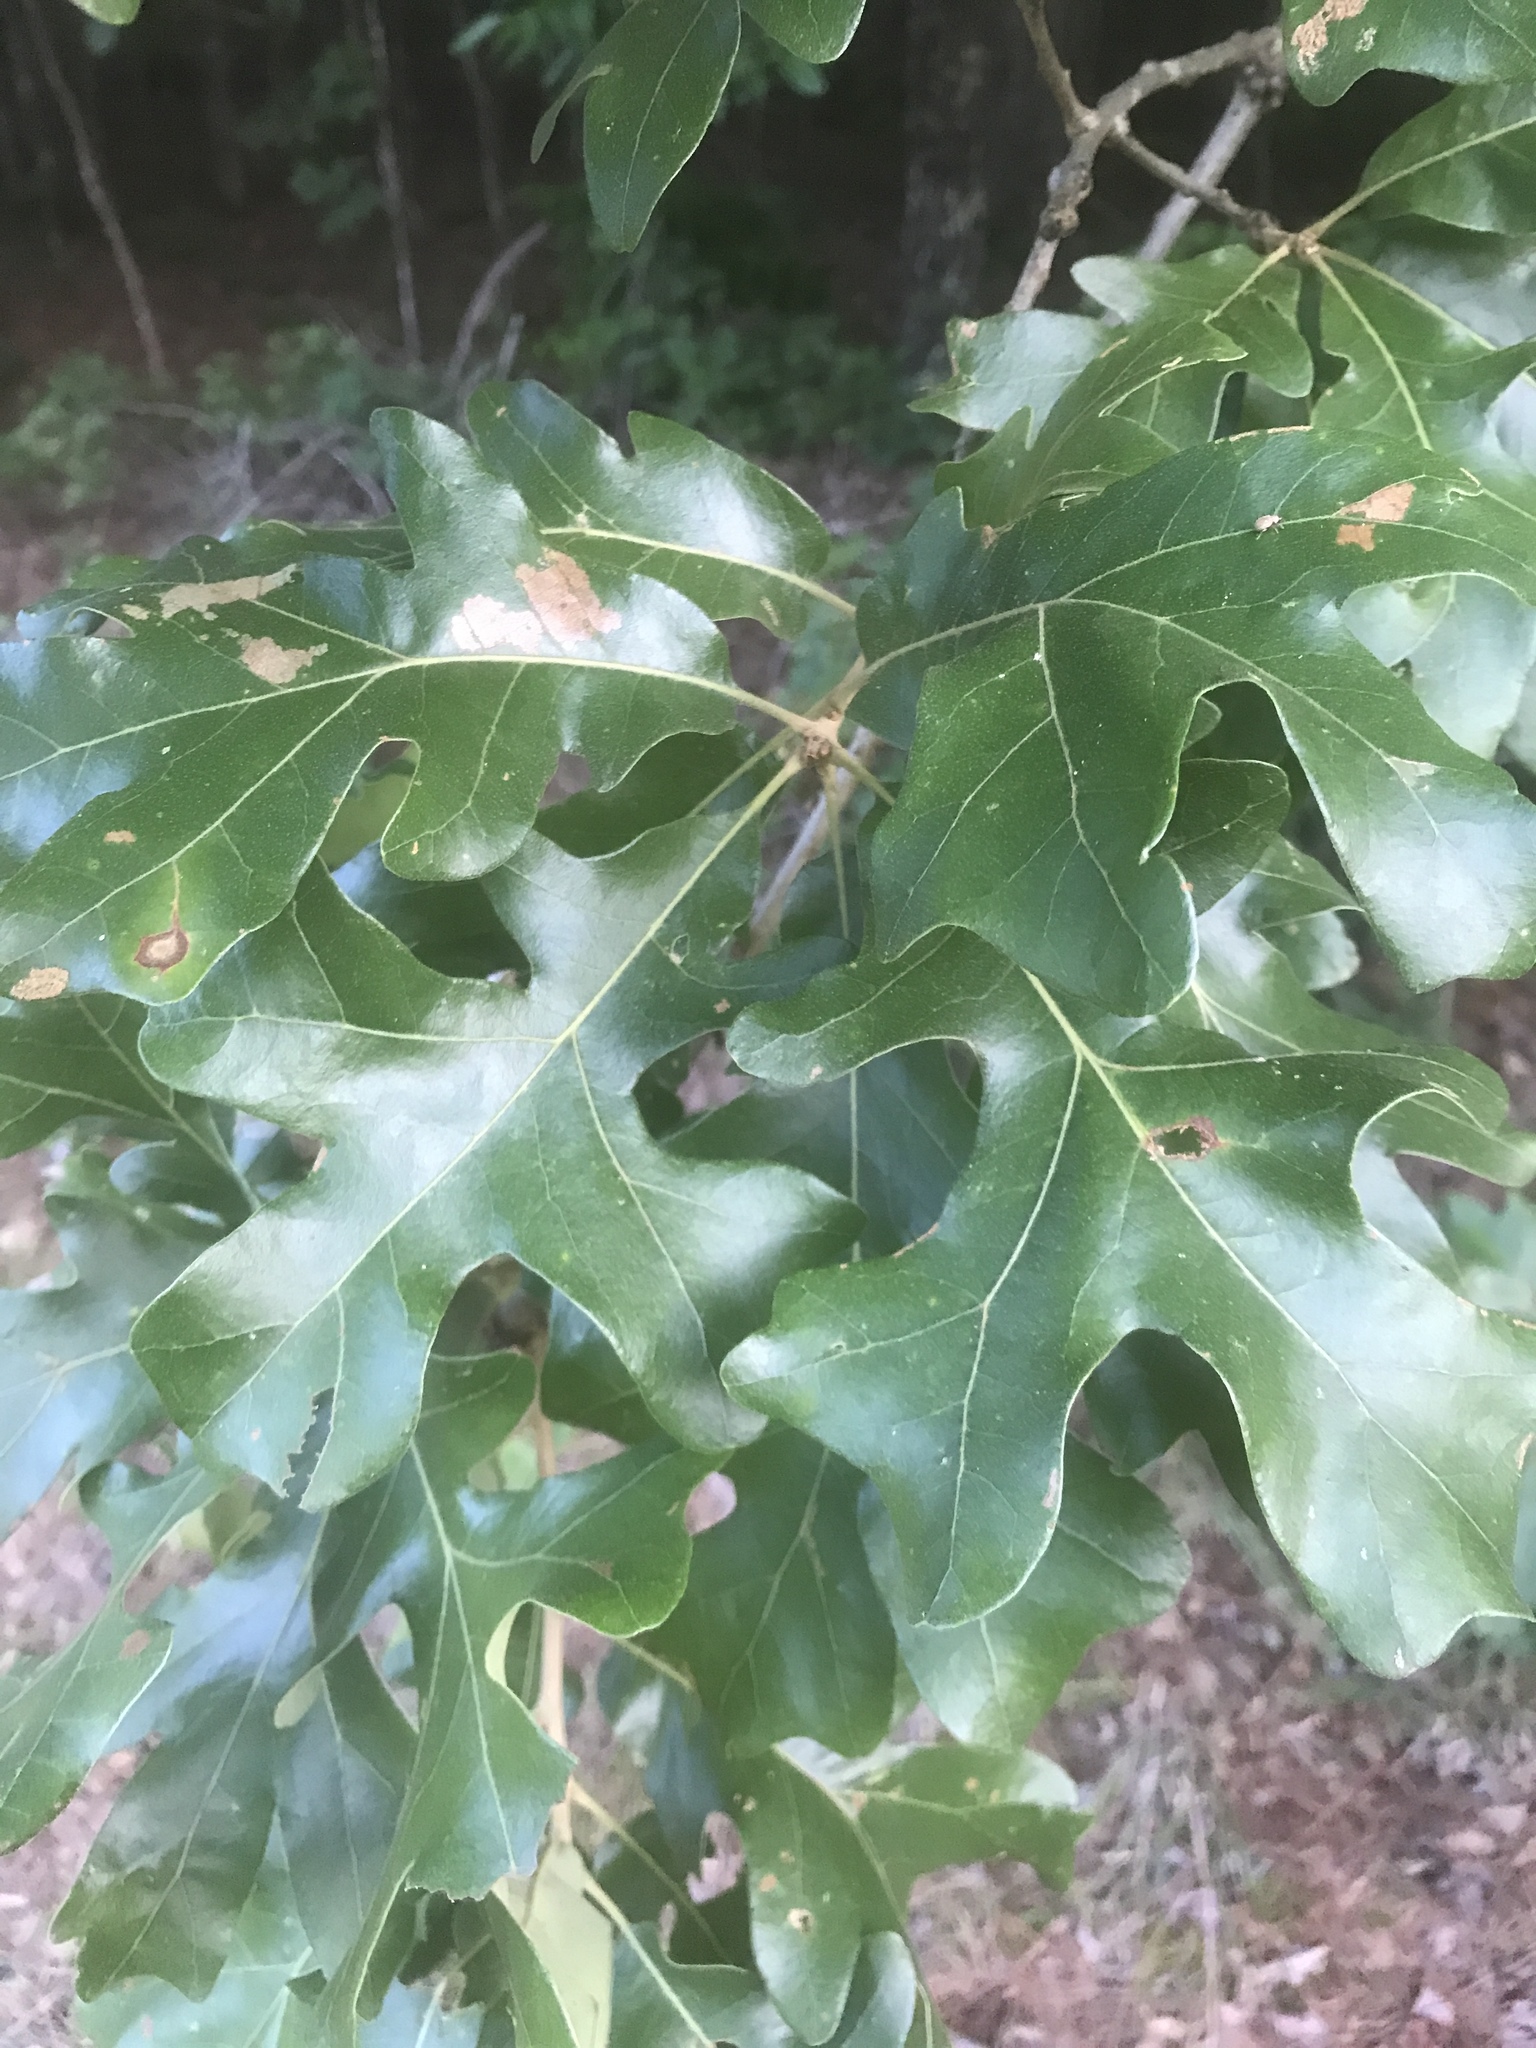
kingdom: Plantae
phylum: Tracheophyta
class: Magnoliopsida
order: Fagales
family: Fagaceae
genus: Quercus
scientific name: Quercus stellata
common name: Post oak
